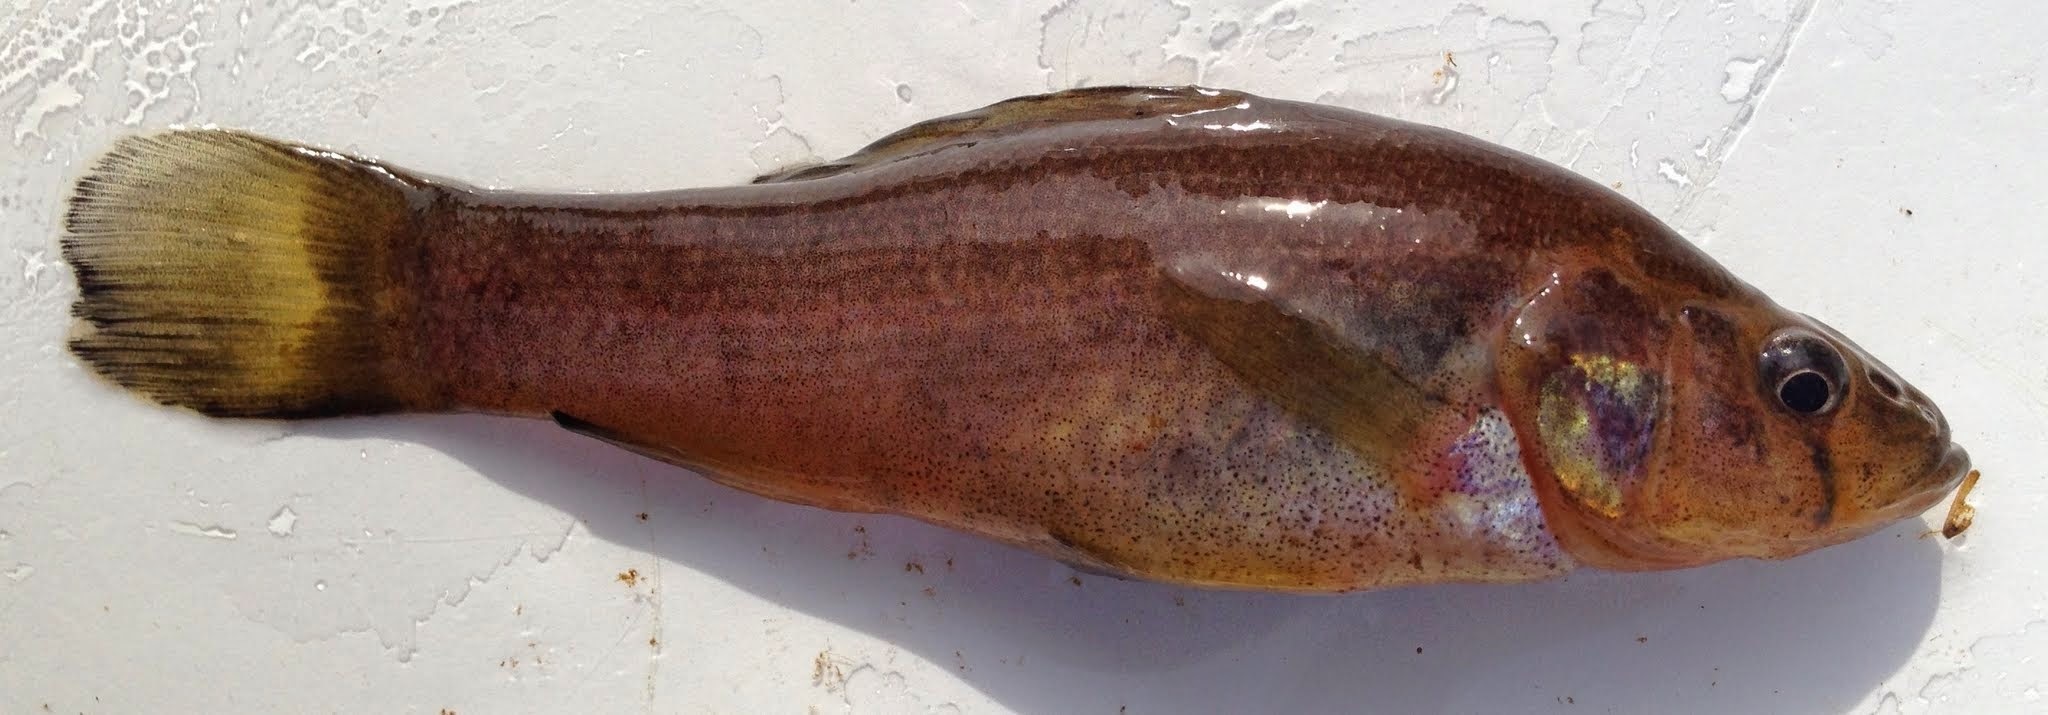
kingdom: Animalia
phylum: Chordata
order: Percopsiformes
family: Aphredoderidae
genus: Aphredoderus
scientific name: Aphredoderus sayanus
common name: Pirate perch
